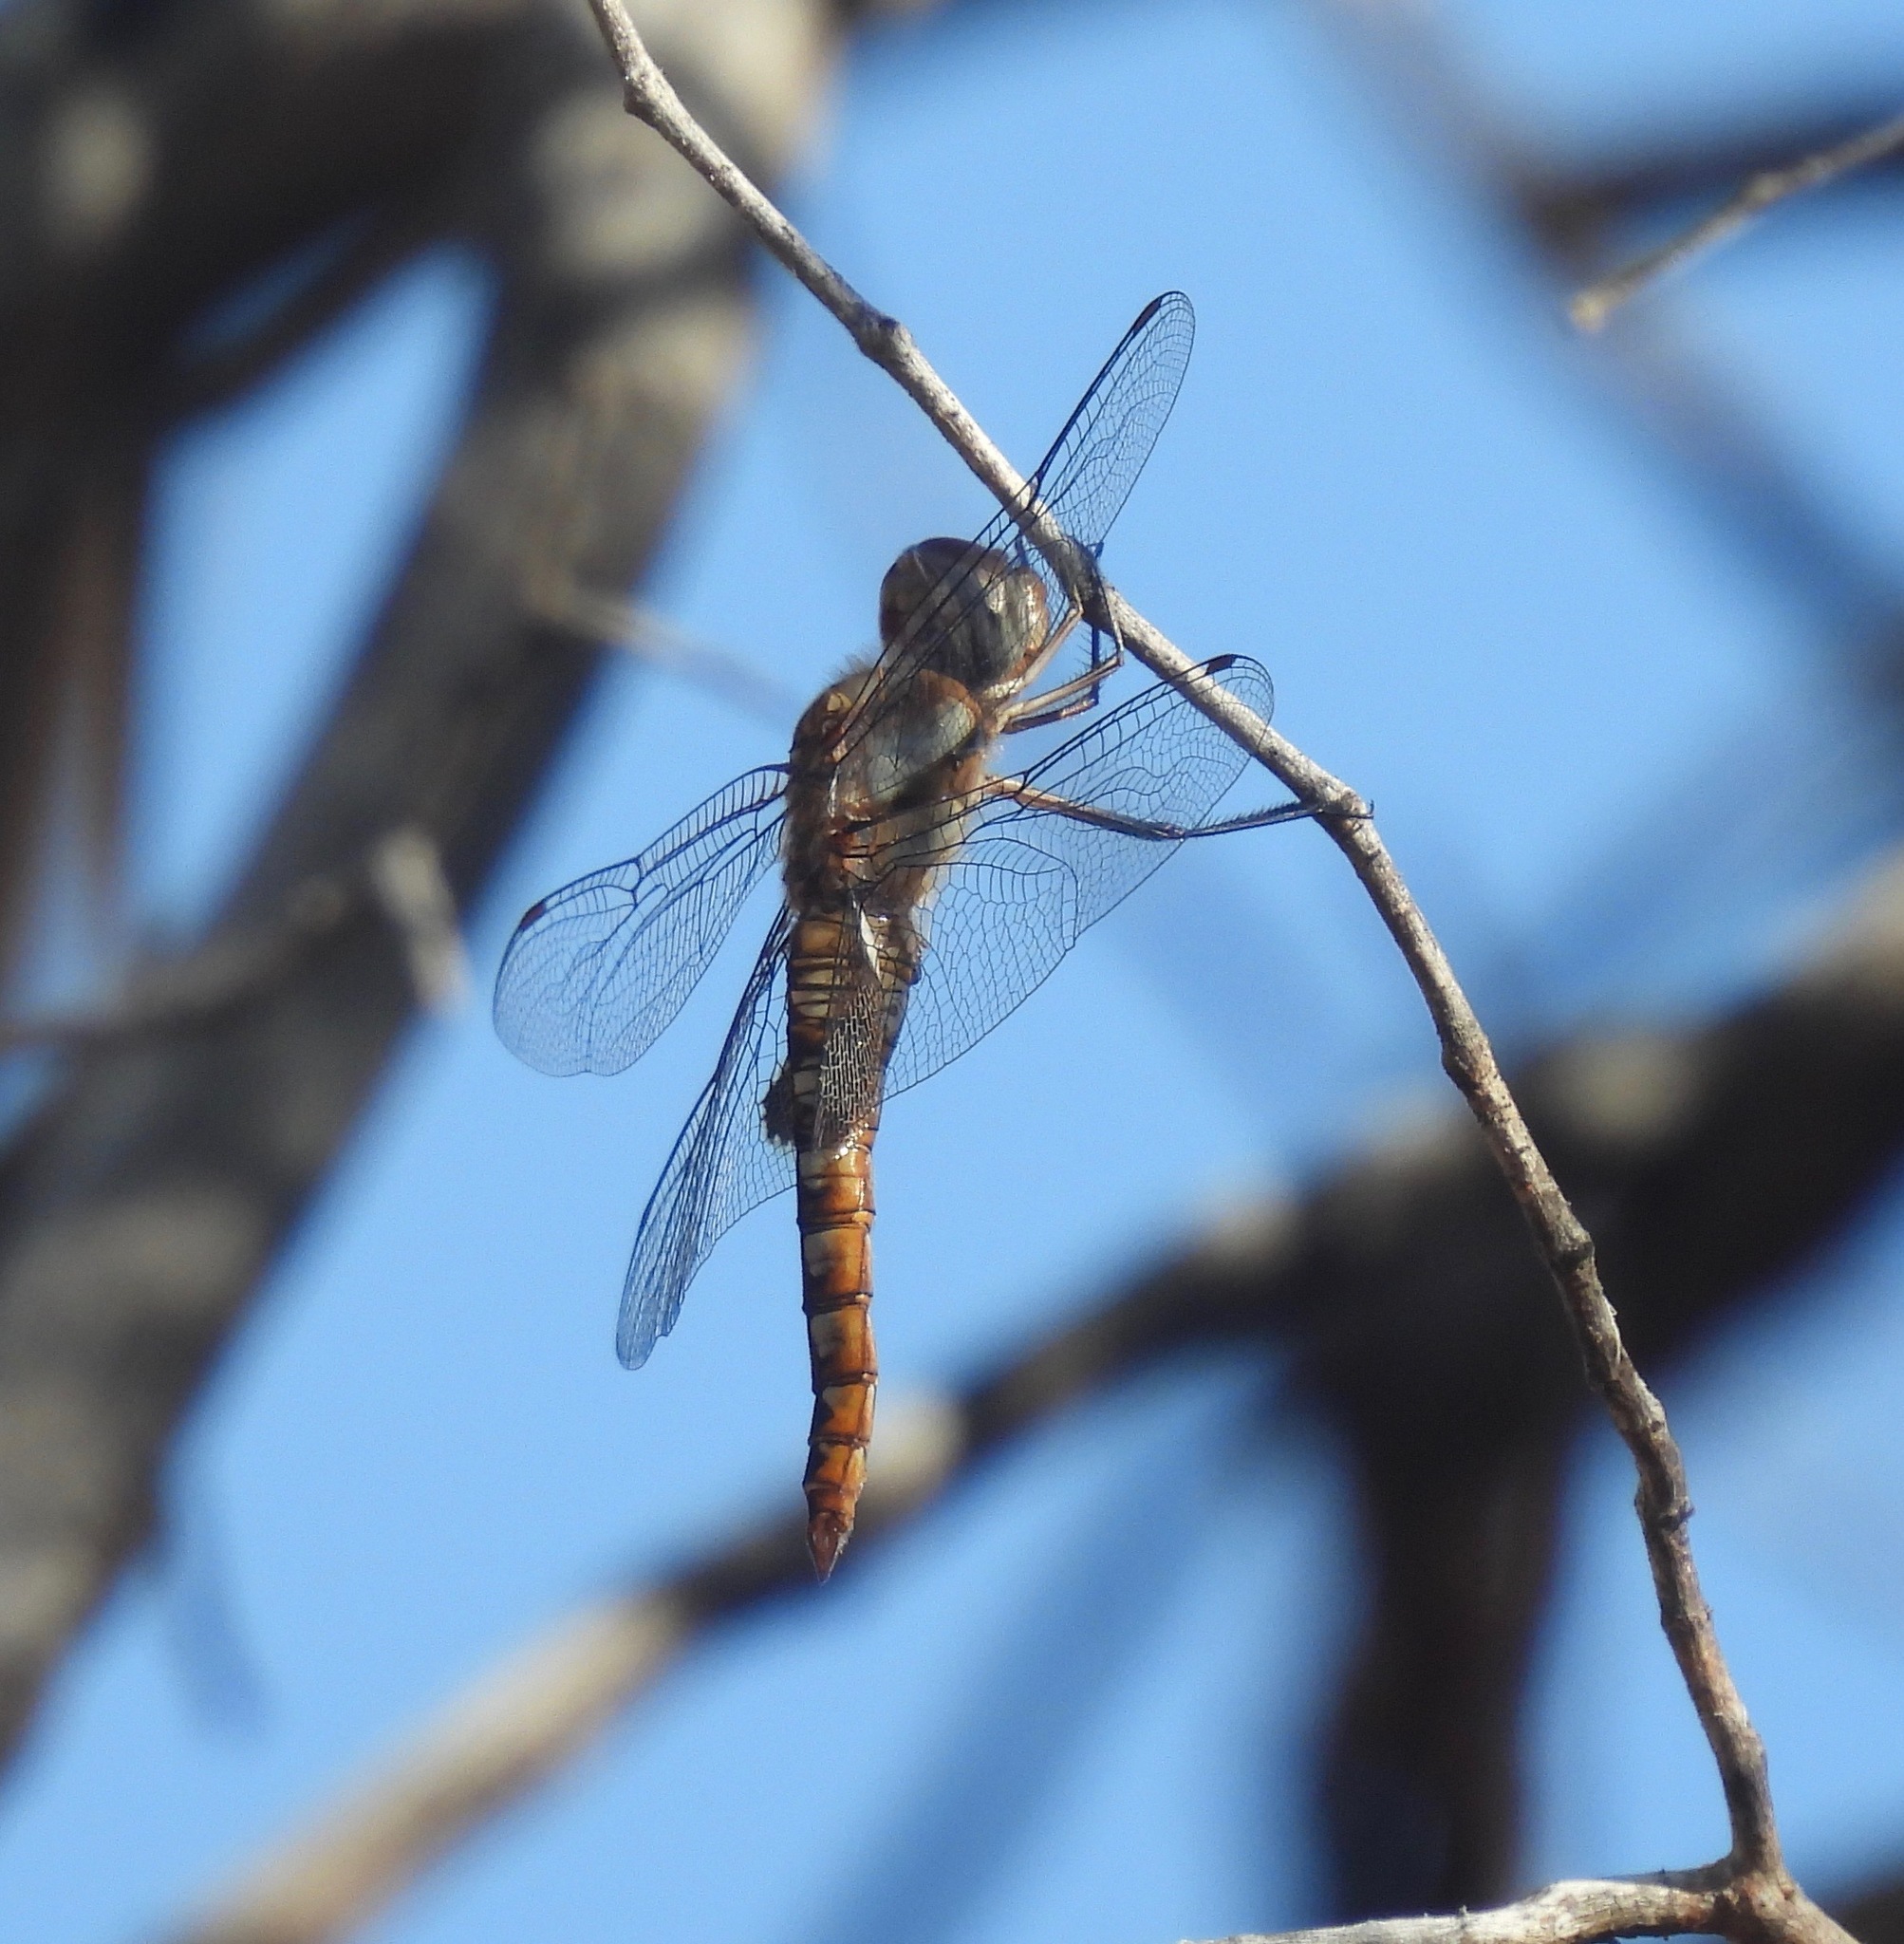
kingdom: Animalia
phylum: Arthropoda
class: Insecta
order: Odonata
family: Libellulidae
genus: Pantala
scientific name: Pantala hymenaea
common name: Spot-winged glider
